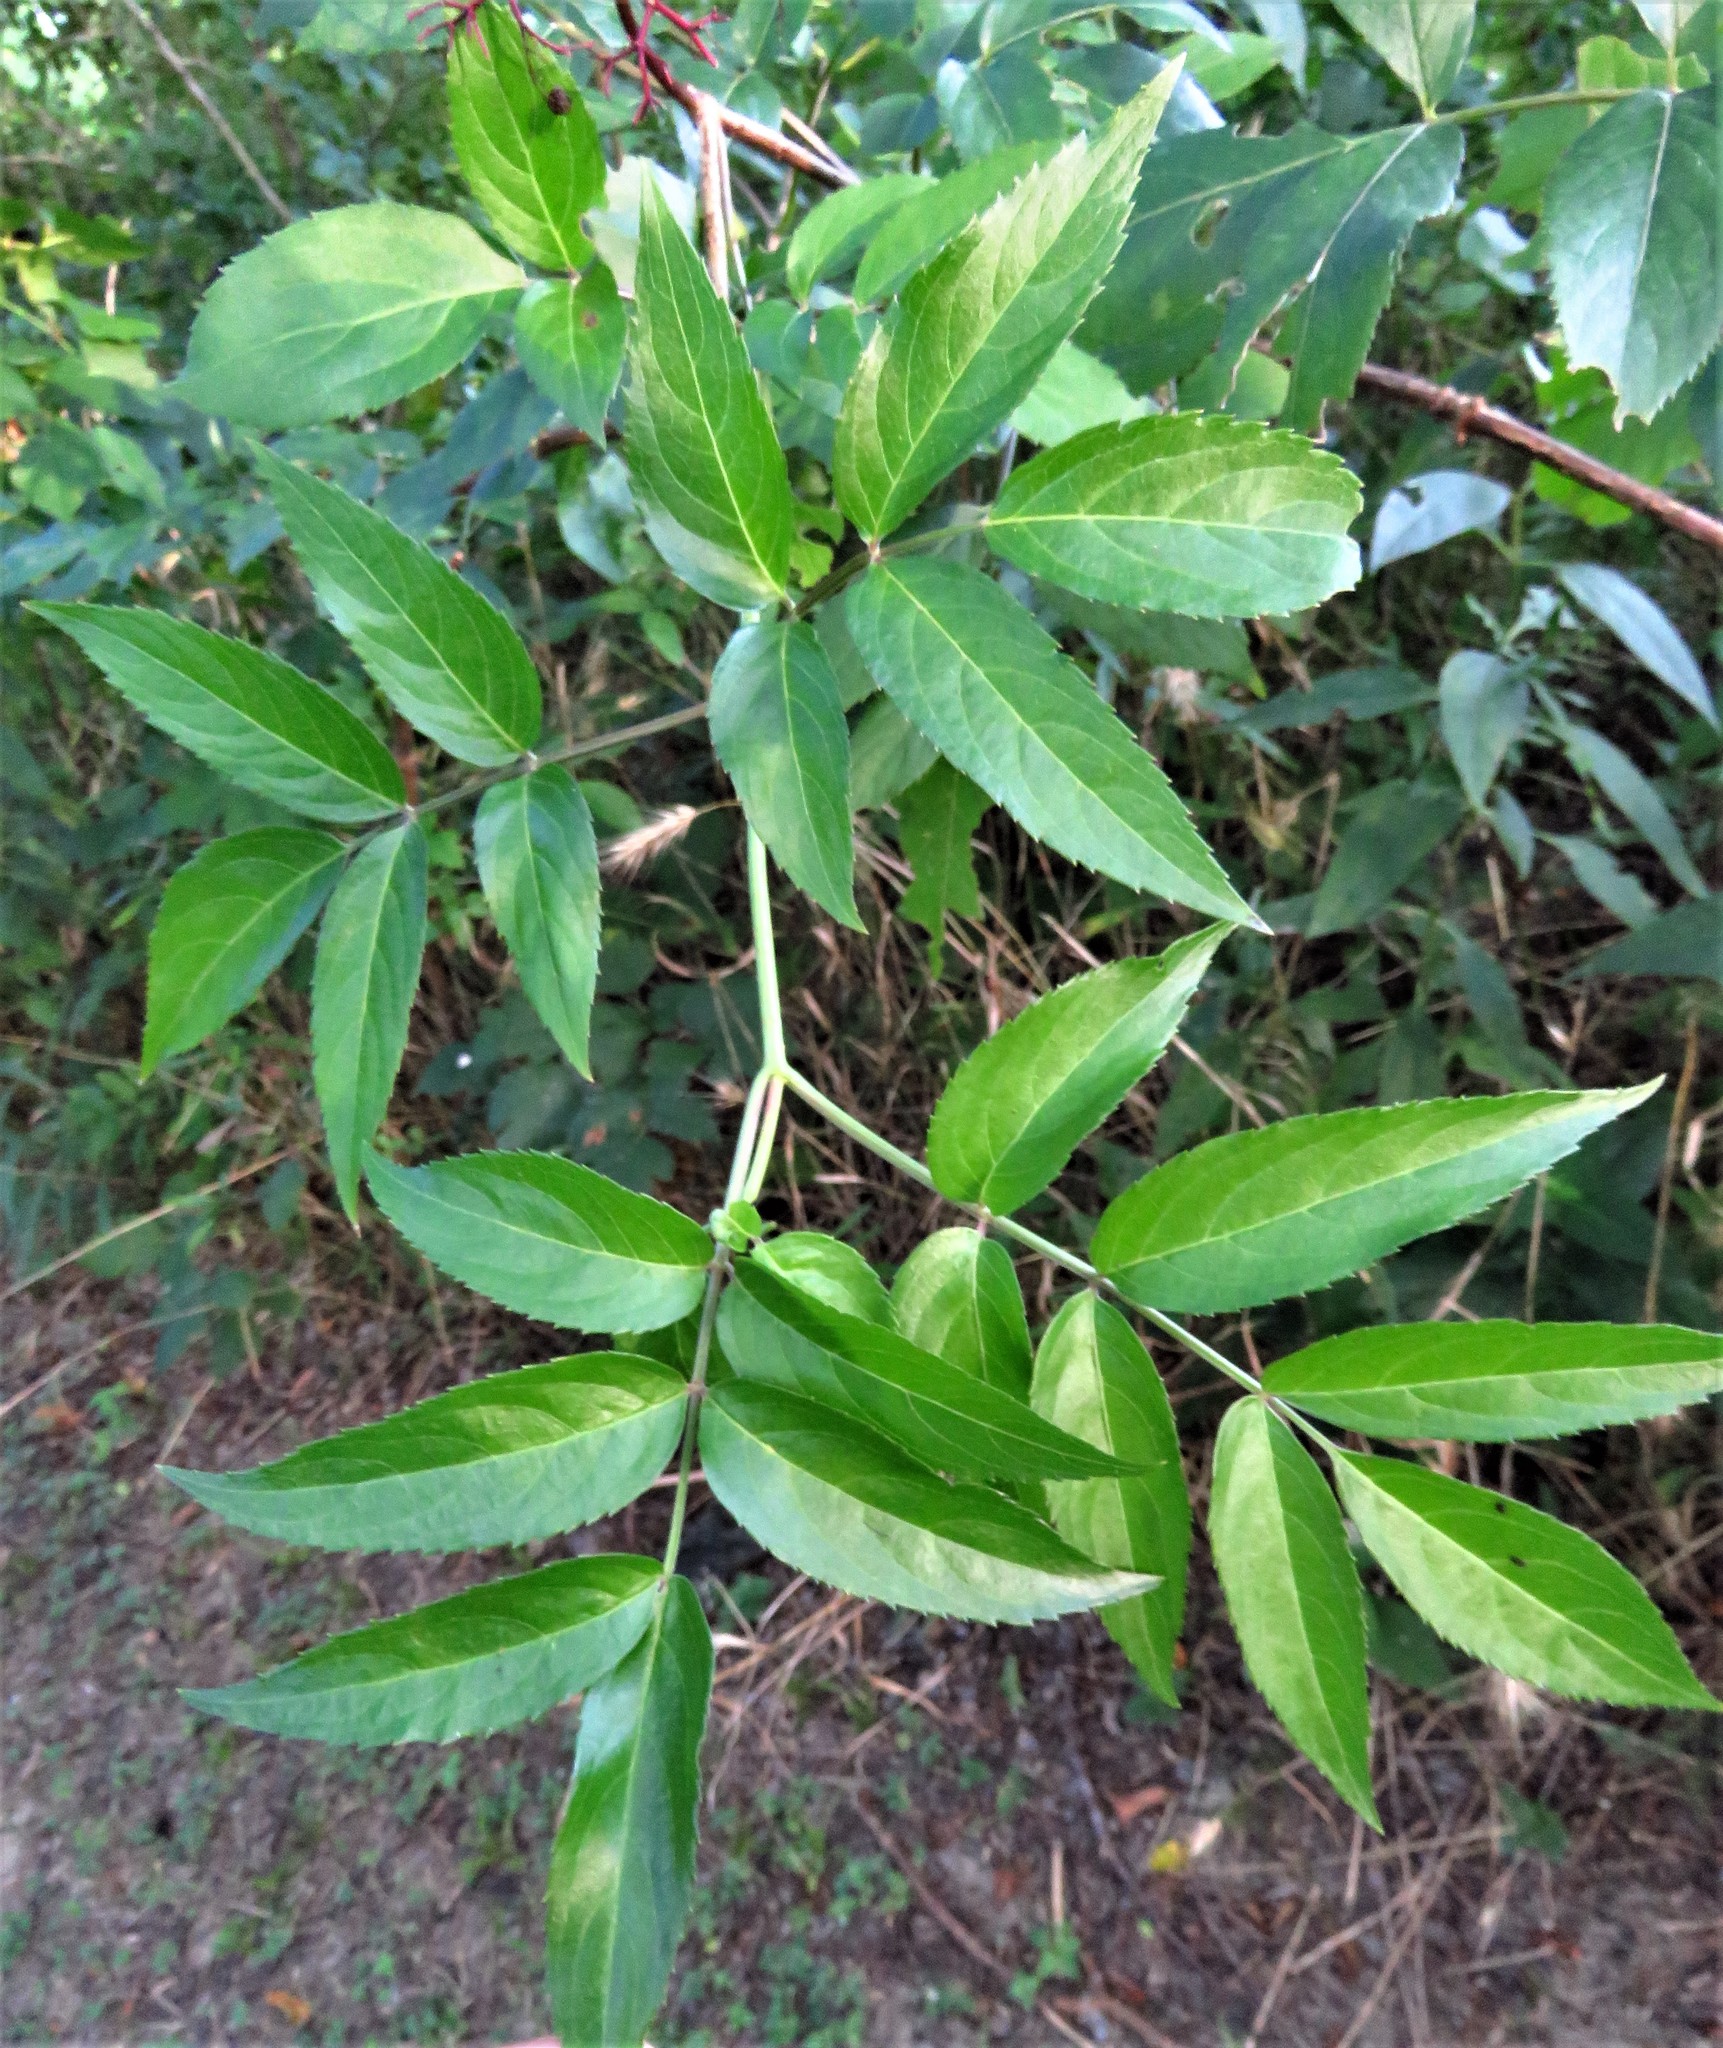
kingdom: Plantae
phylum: Tracheophyta
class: Magnoliopsida
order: Dipsacales
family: Viburnaceae
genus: Sambucus
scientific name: Sambucus canadensis
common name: American elder
